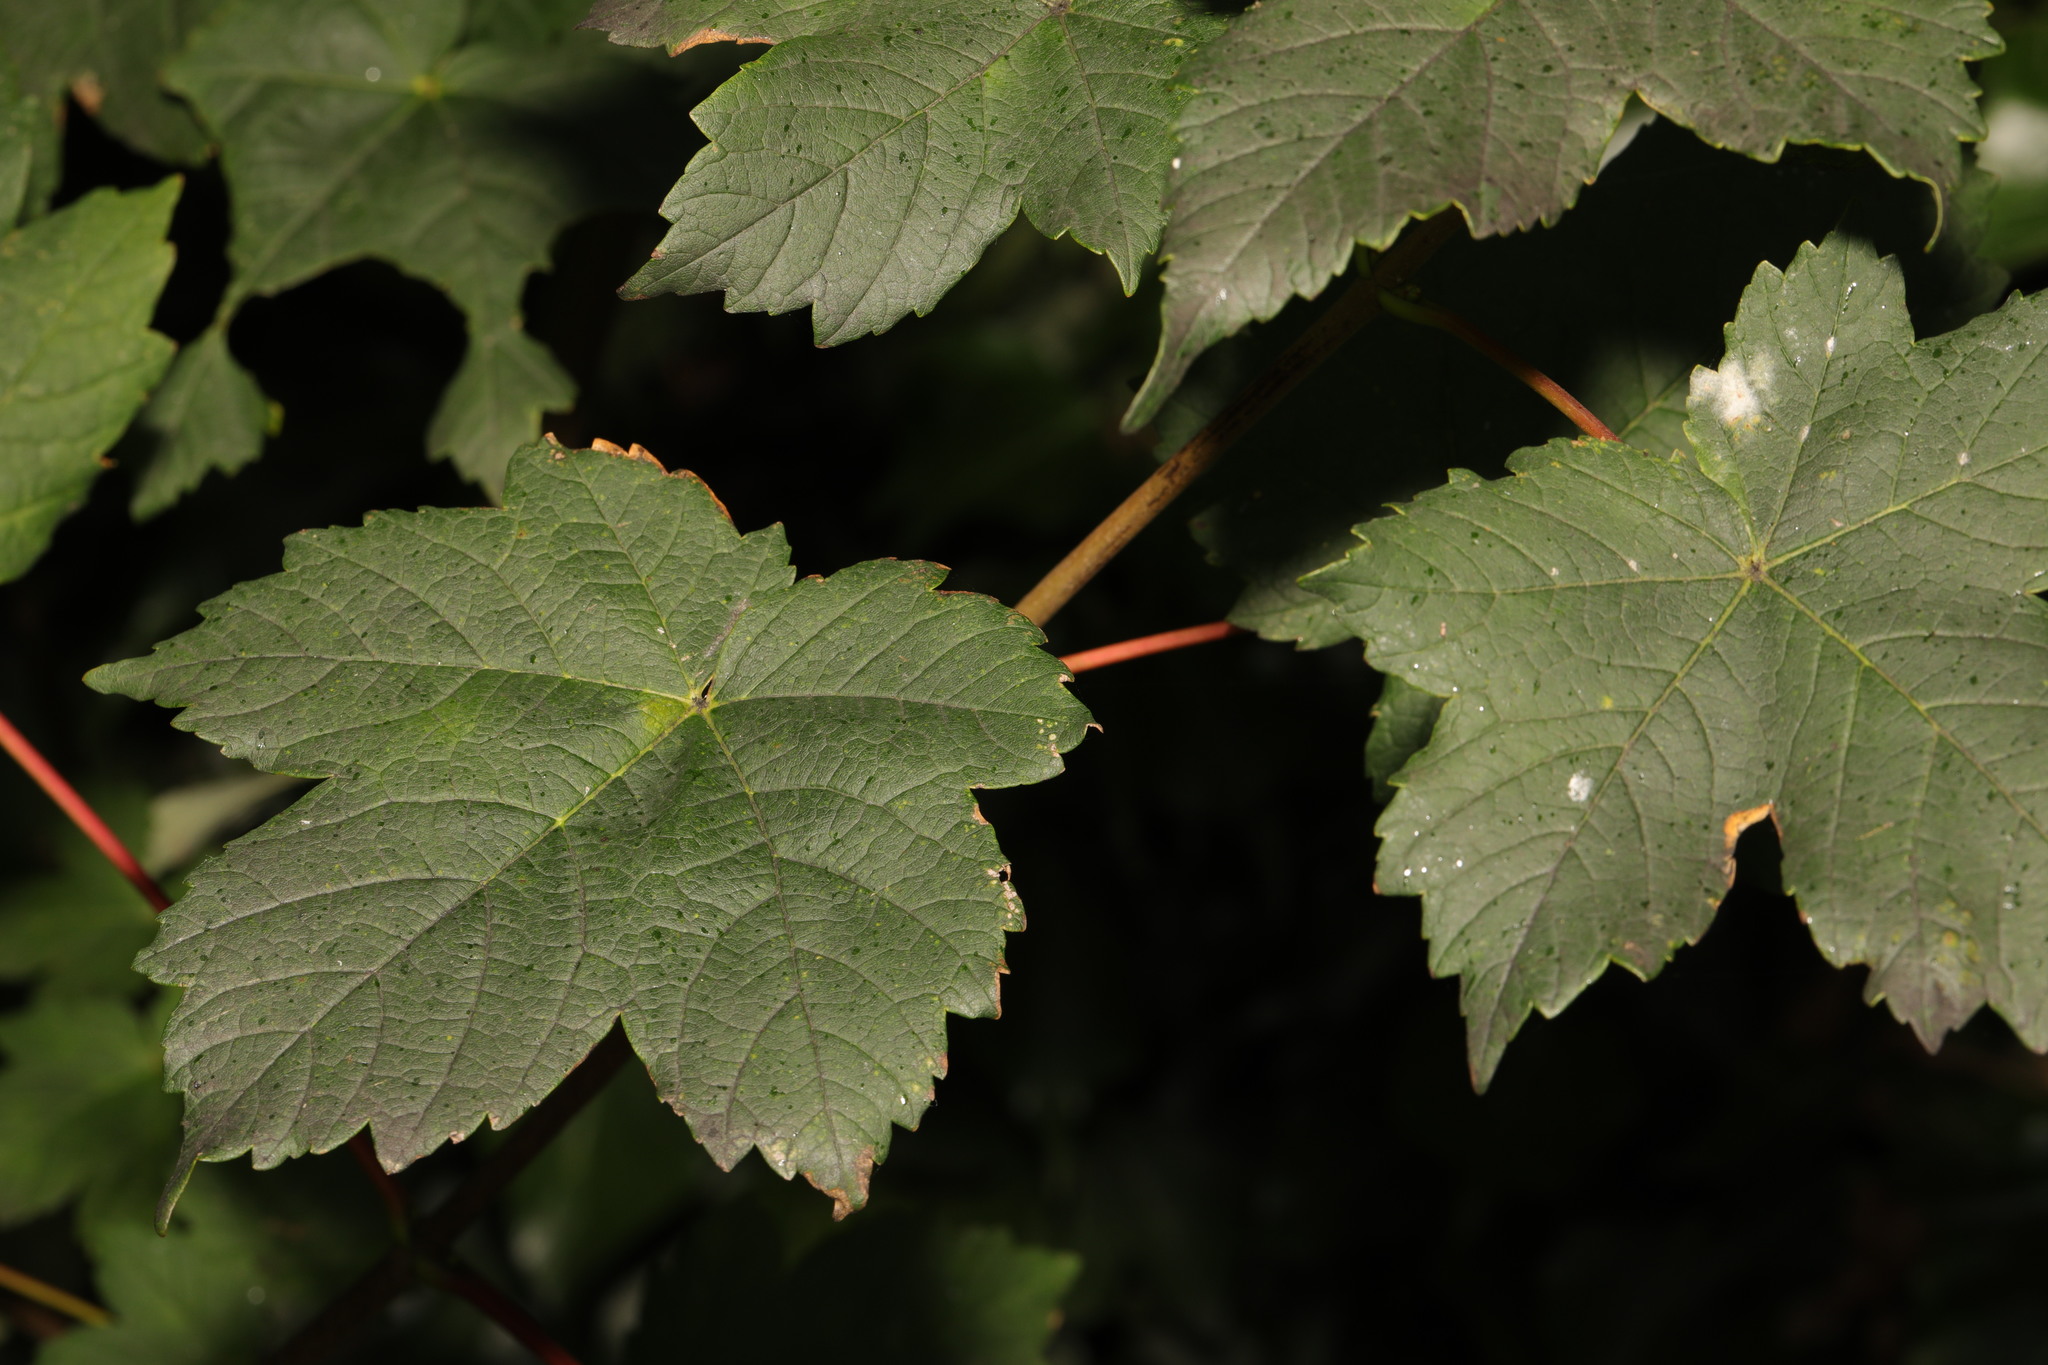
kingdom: Plantae
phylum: Tracheophyta
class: Magnoliopsida
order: Sapindales
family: Sapindaceae
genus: Acer
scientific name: Acer pseudoplatanus
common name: Sycamore
